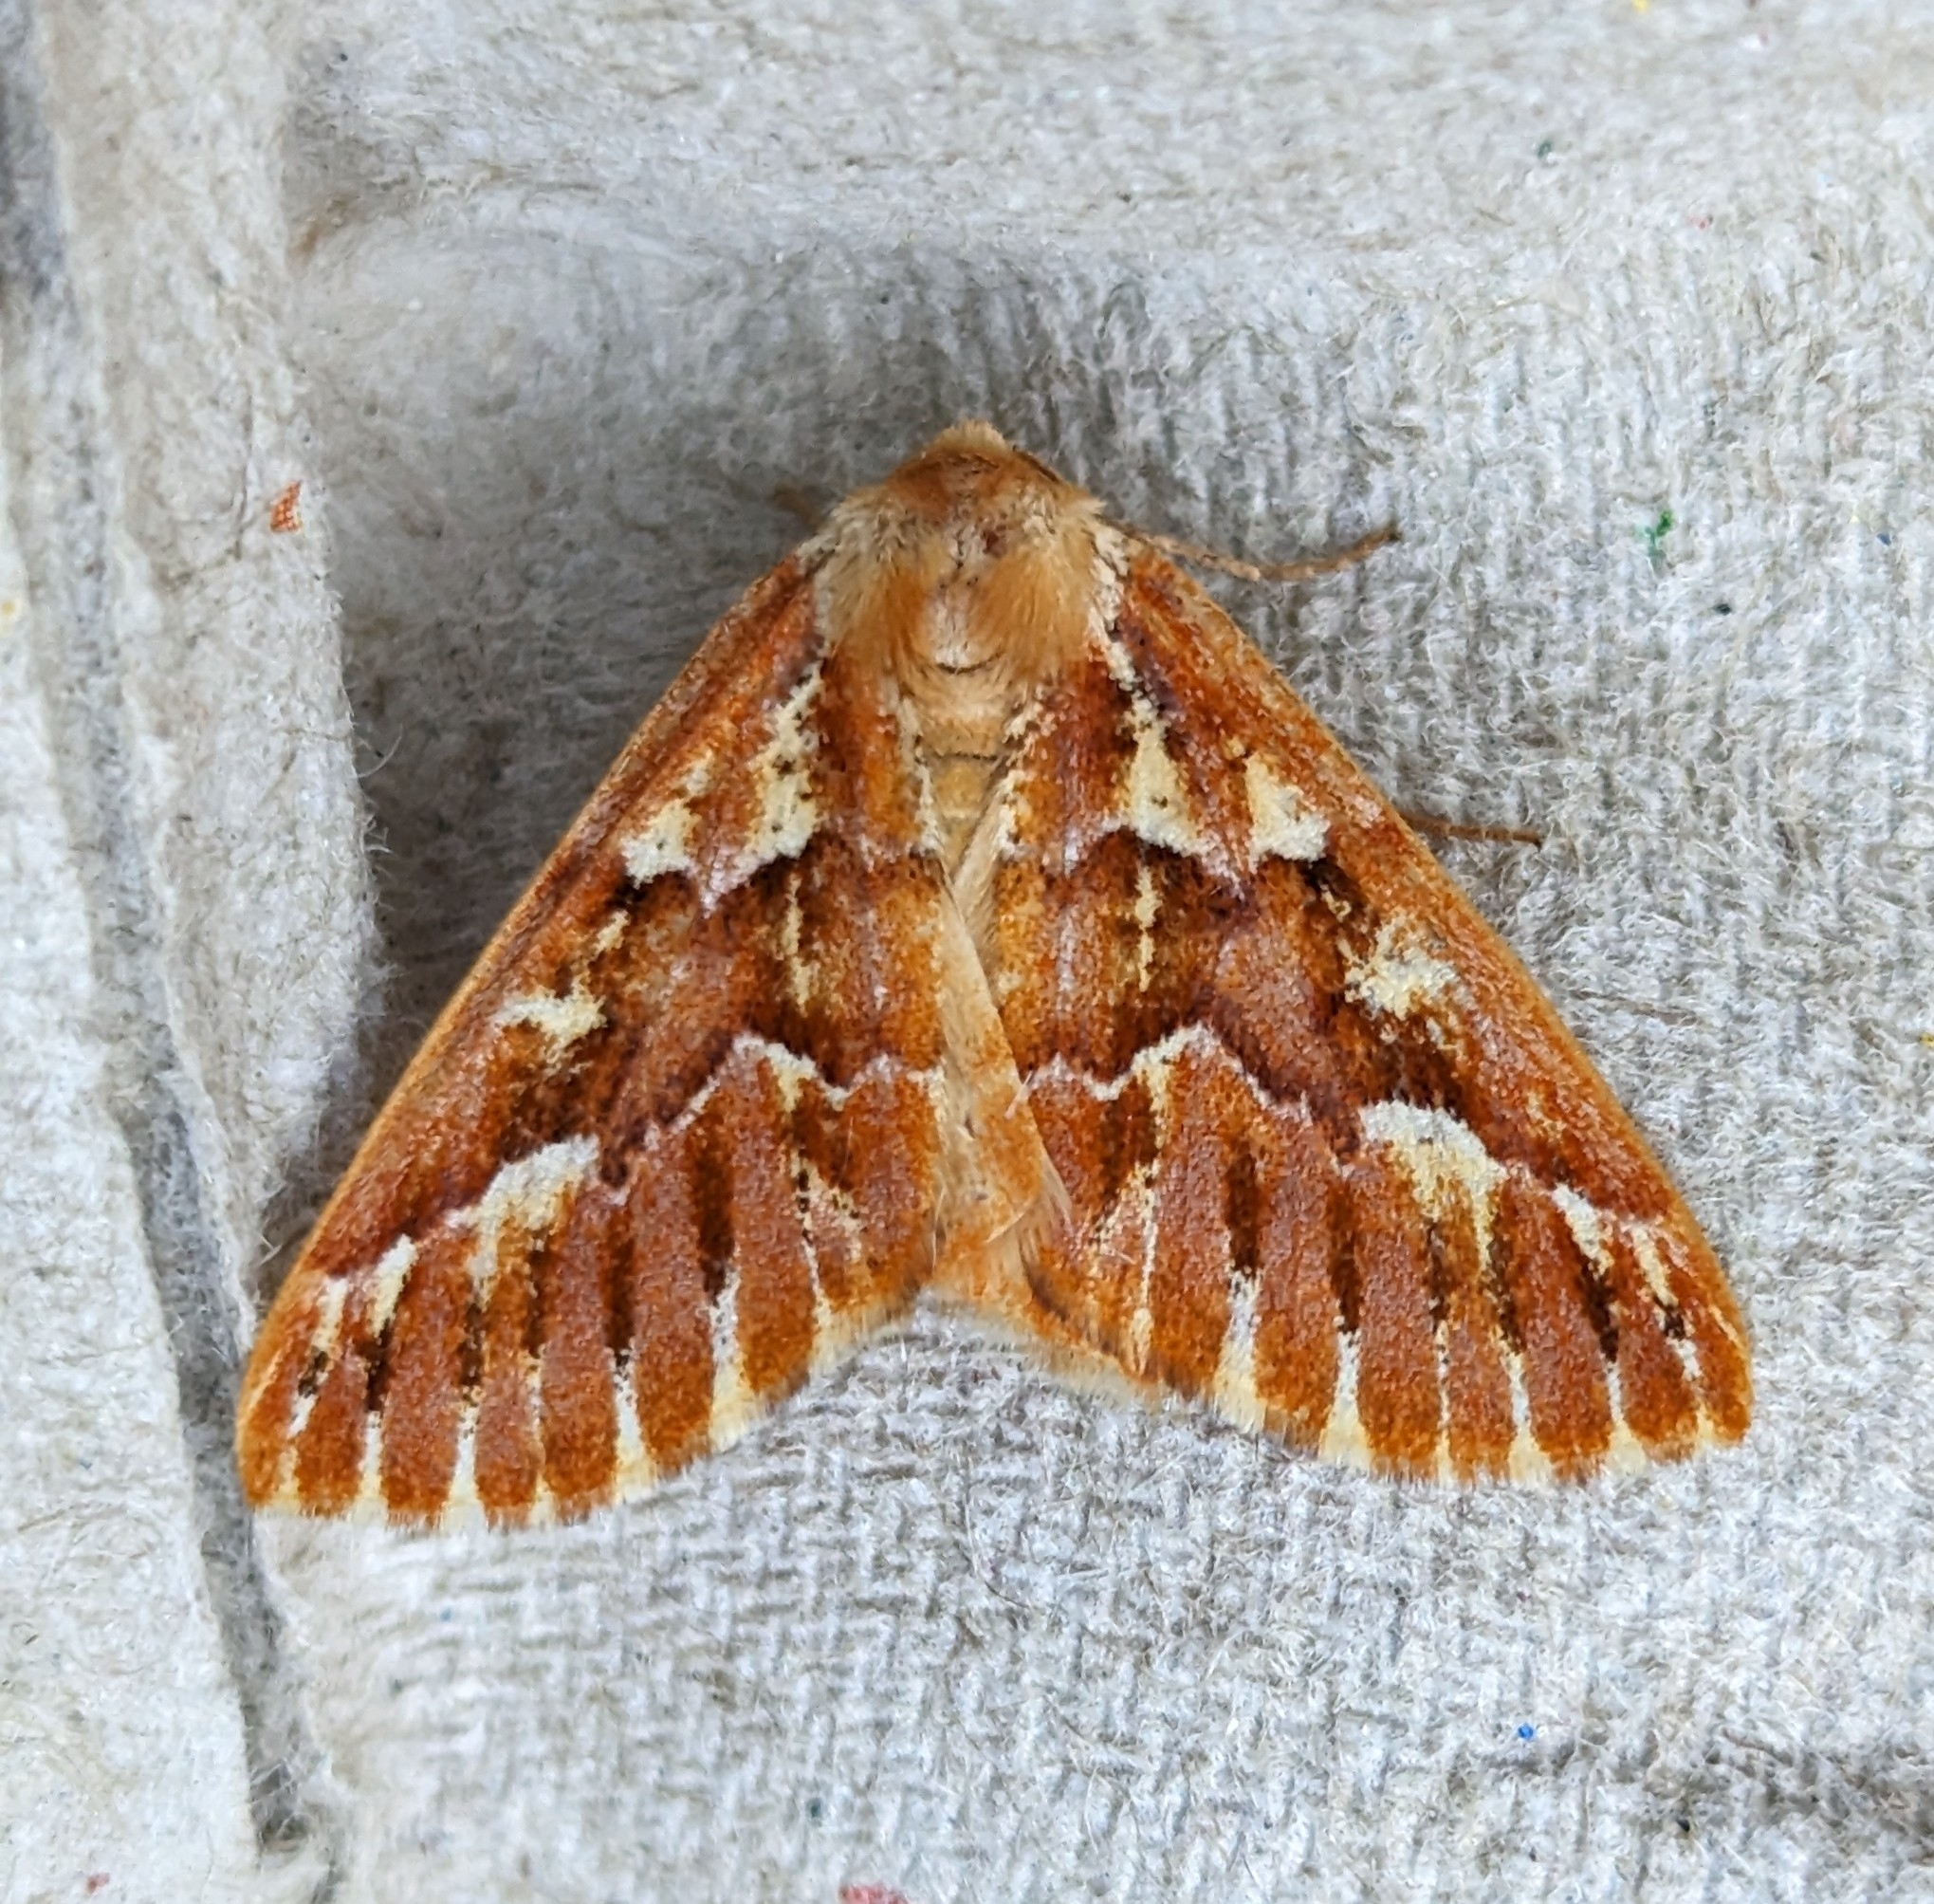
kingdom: Animalia
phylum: Arthropoda
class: Insecta
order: Lepidoptera
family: Geometridae
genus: Caripeta
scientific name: Caripeta aequaliaria
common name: Red girdle moth
